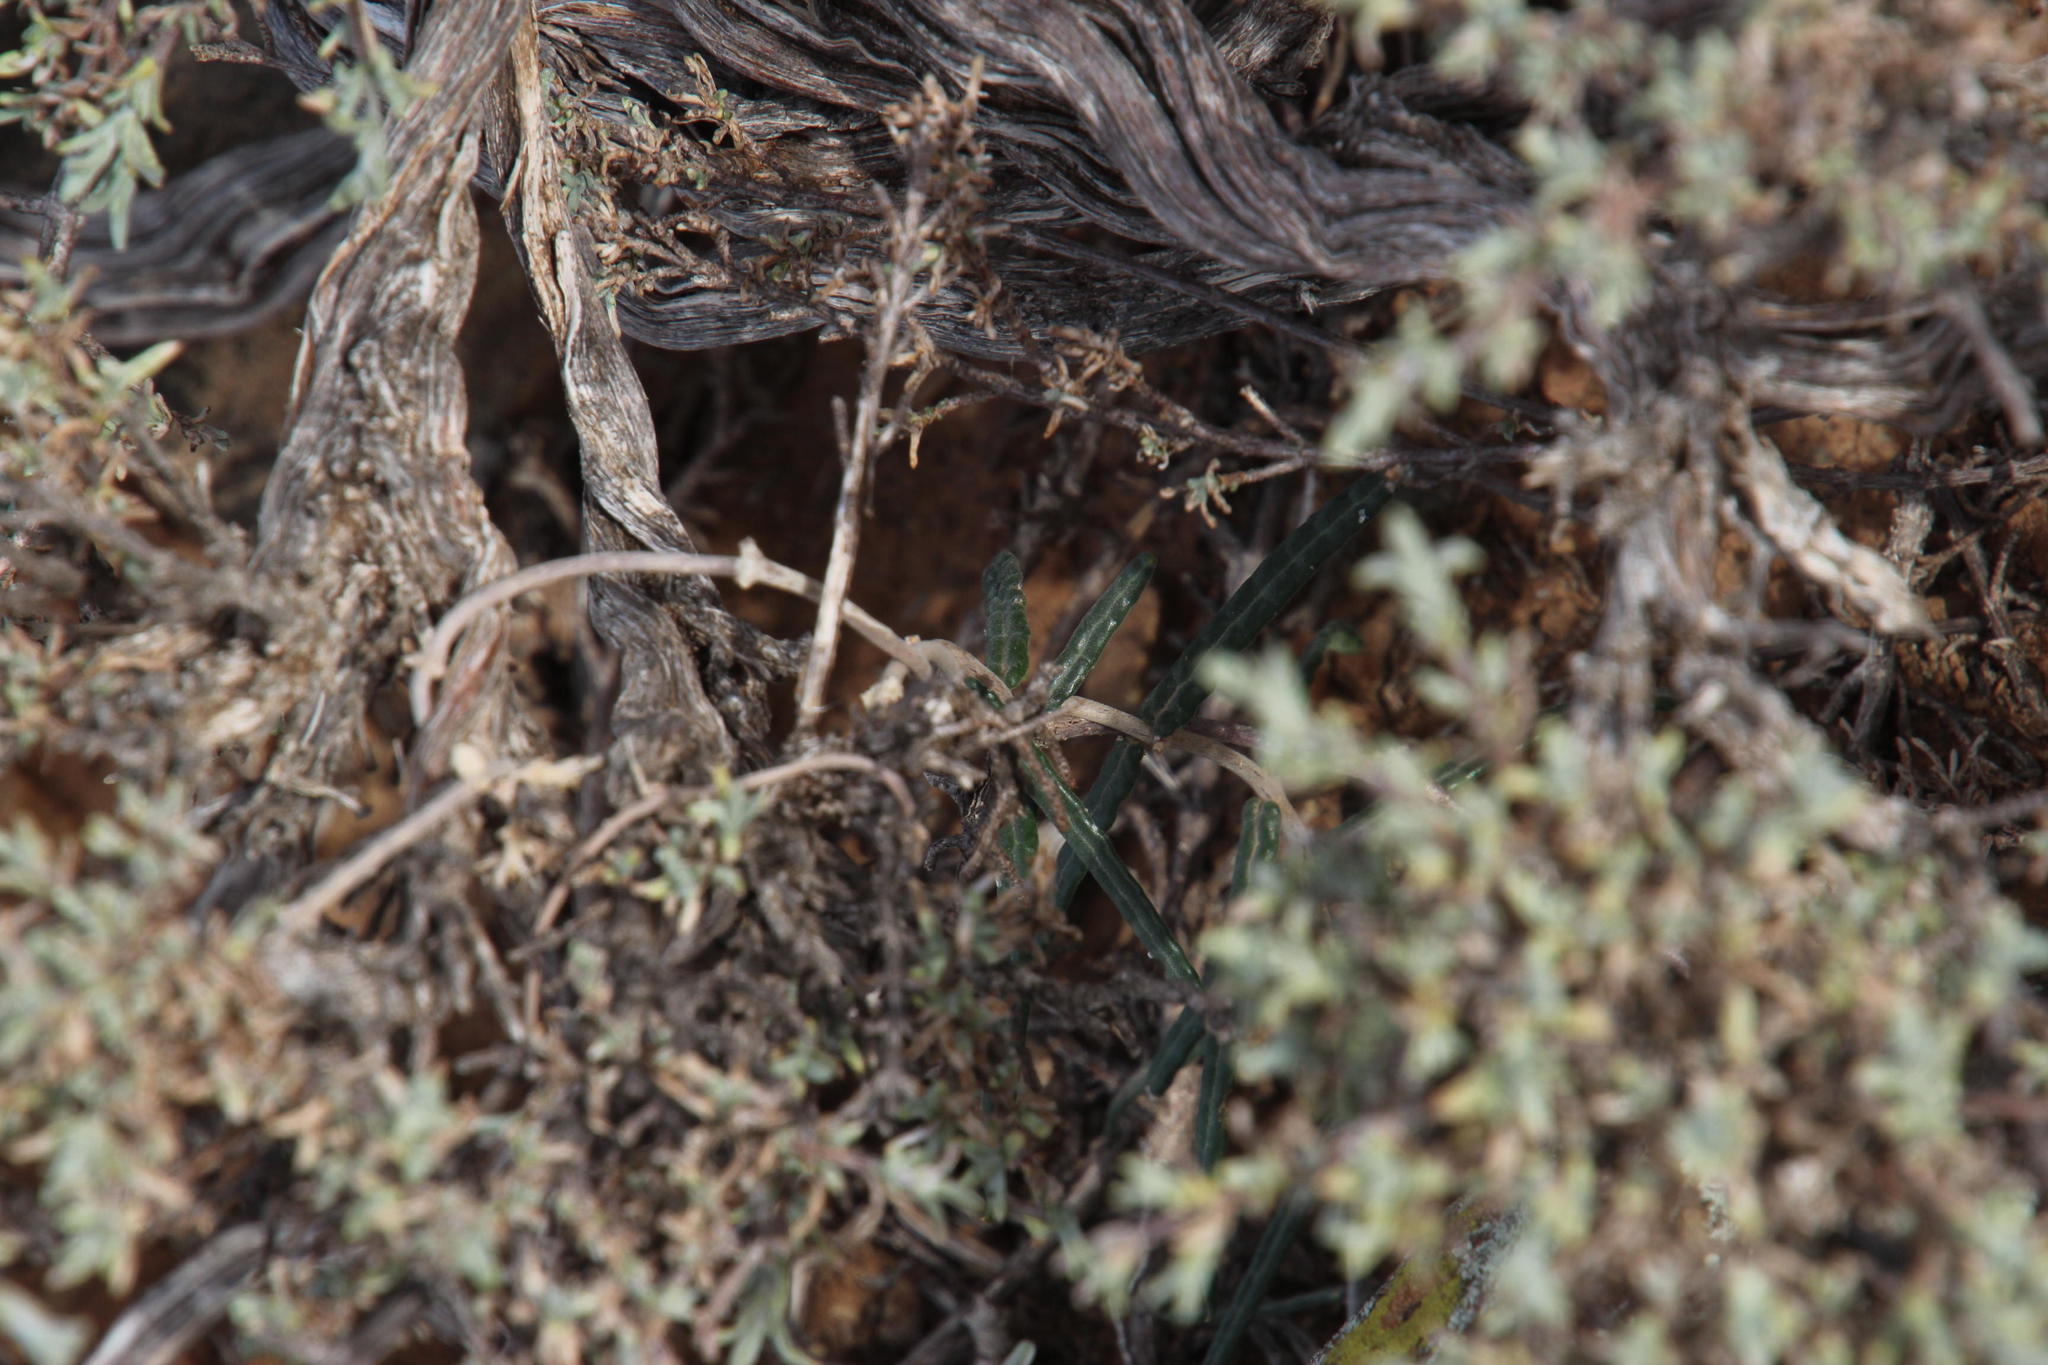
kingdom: Plantae
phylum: Tracheophyta
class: Magnoliopsida
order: Gentianales
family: Apocynaceae
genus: Fockea
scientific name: Fockea comaru
